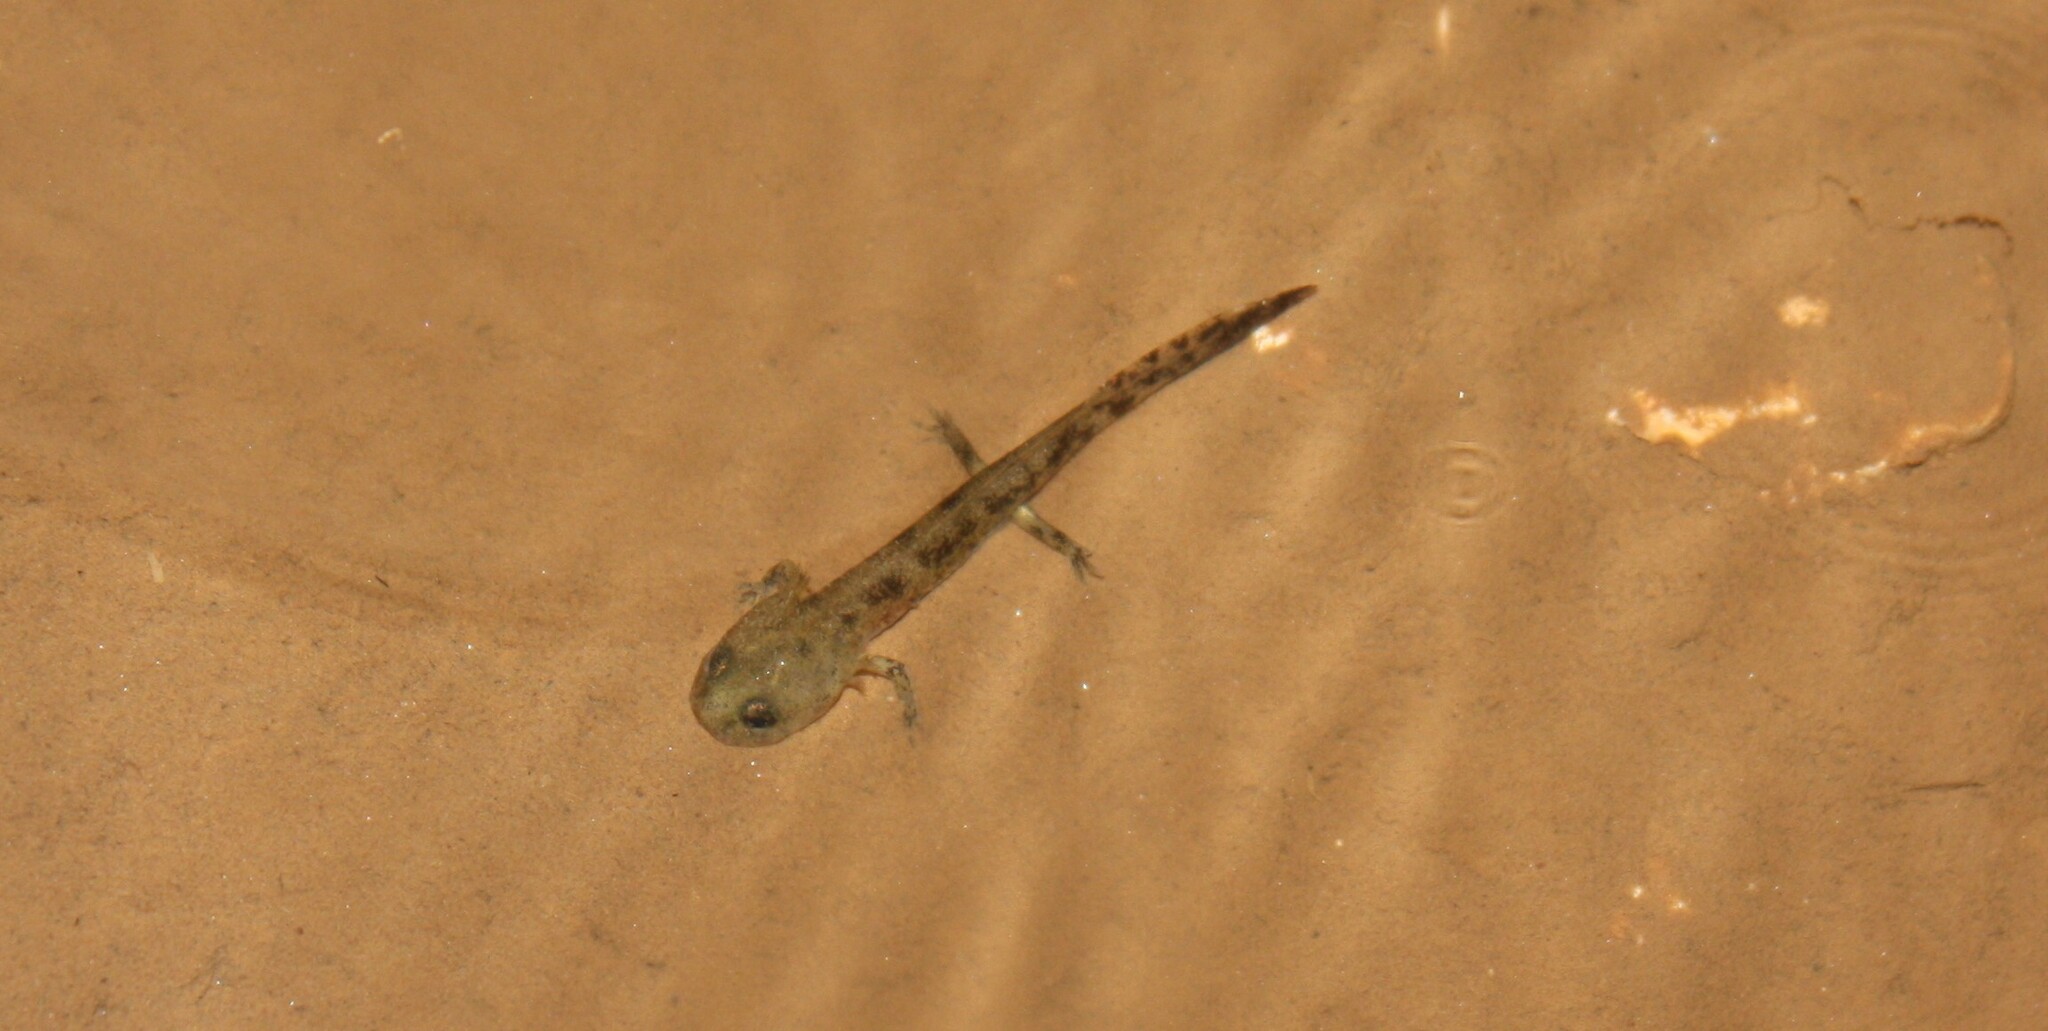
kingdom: Animalia
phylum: Chordata
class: Amphibia
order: Caudata
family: Salamandridae
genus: Salamandra
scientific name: Salamandra salamandra
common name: Fire salamander
